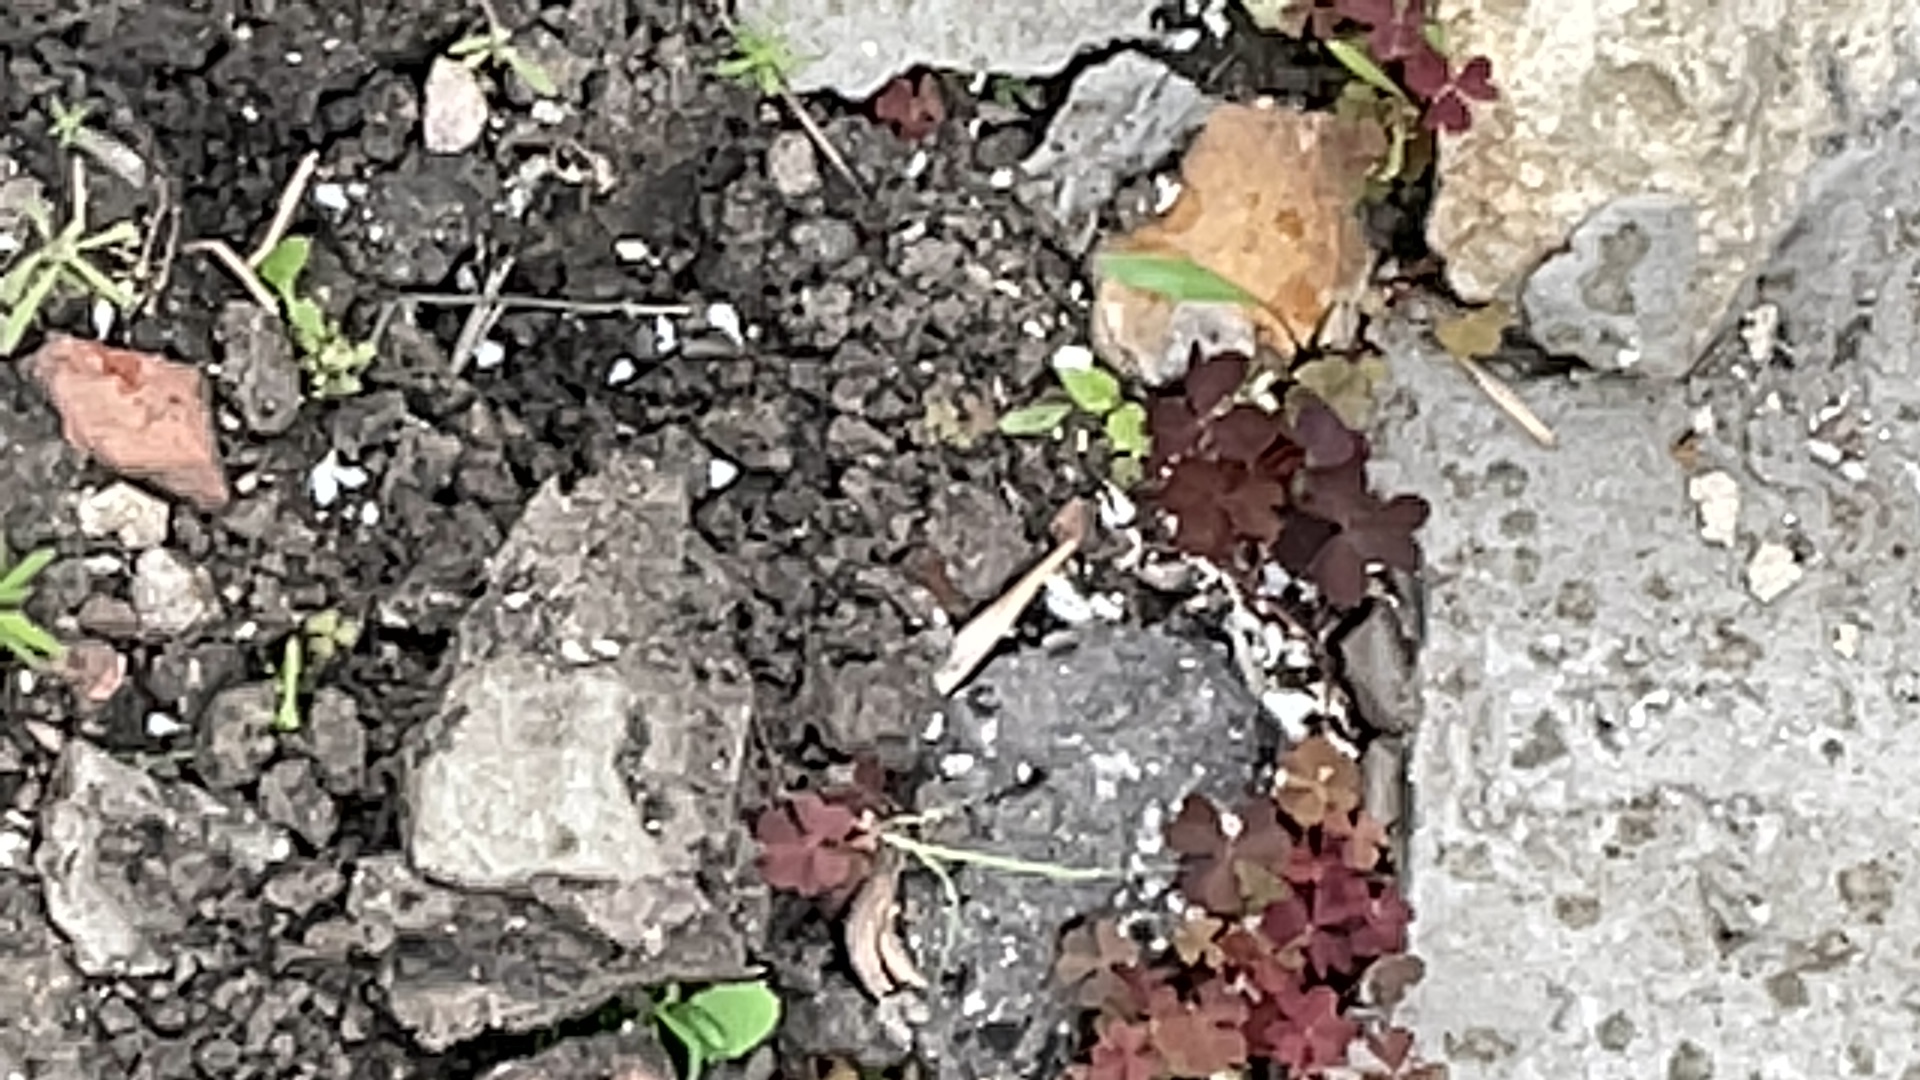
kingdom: Plantae
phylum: Tracheophyta
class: Magnoliopsida
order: Oxalidales
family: Oxalidaceae
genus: Oxalis
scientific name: Oxalis stricta
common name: Upright yellow-sorrel
